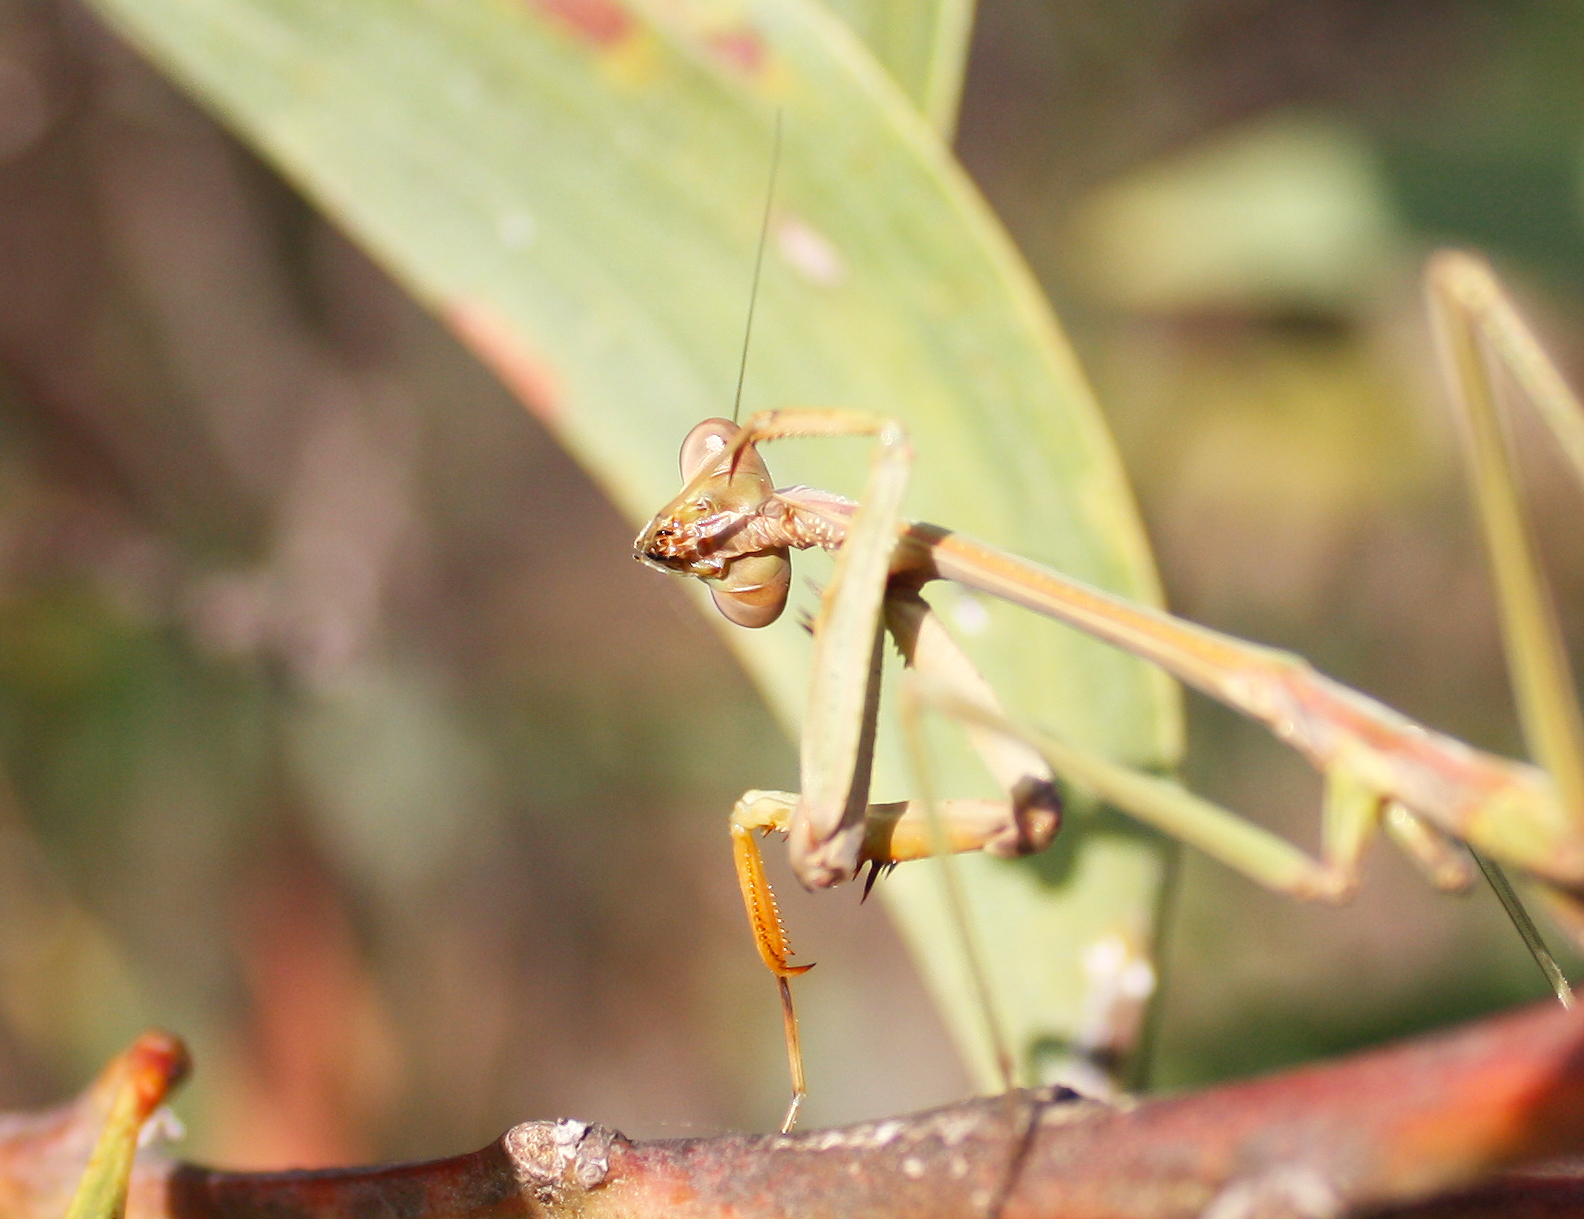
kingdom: Animalia
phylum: Arthropoda
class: Insecta
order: Mantodea
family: Mantidae
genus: Archimantis
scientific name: Archimantis latistyla
